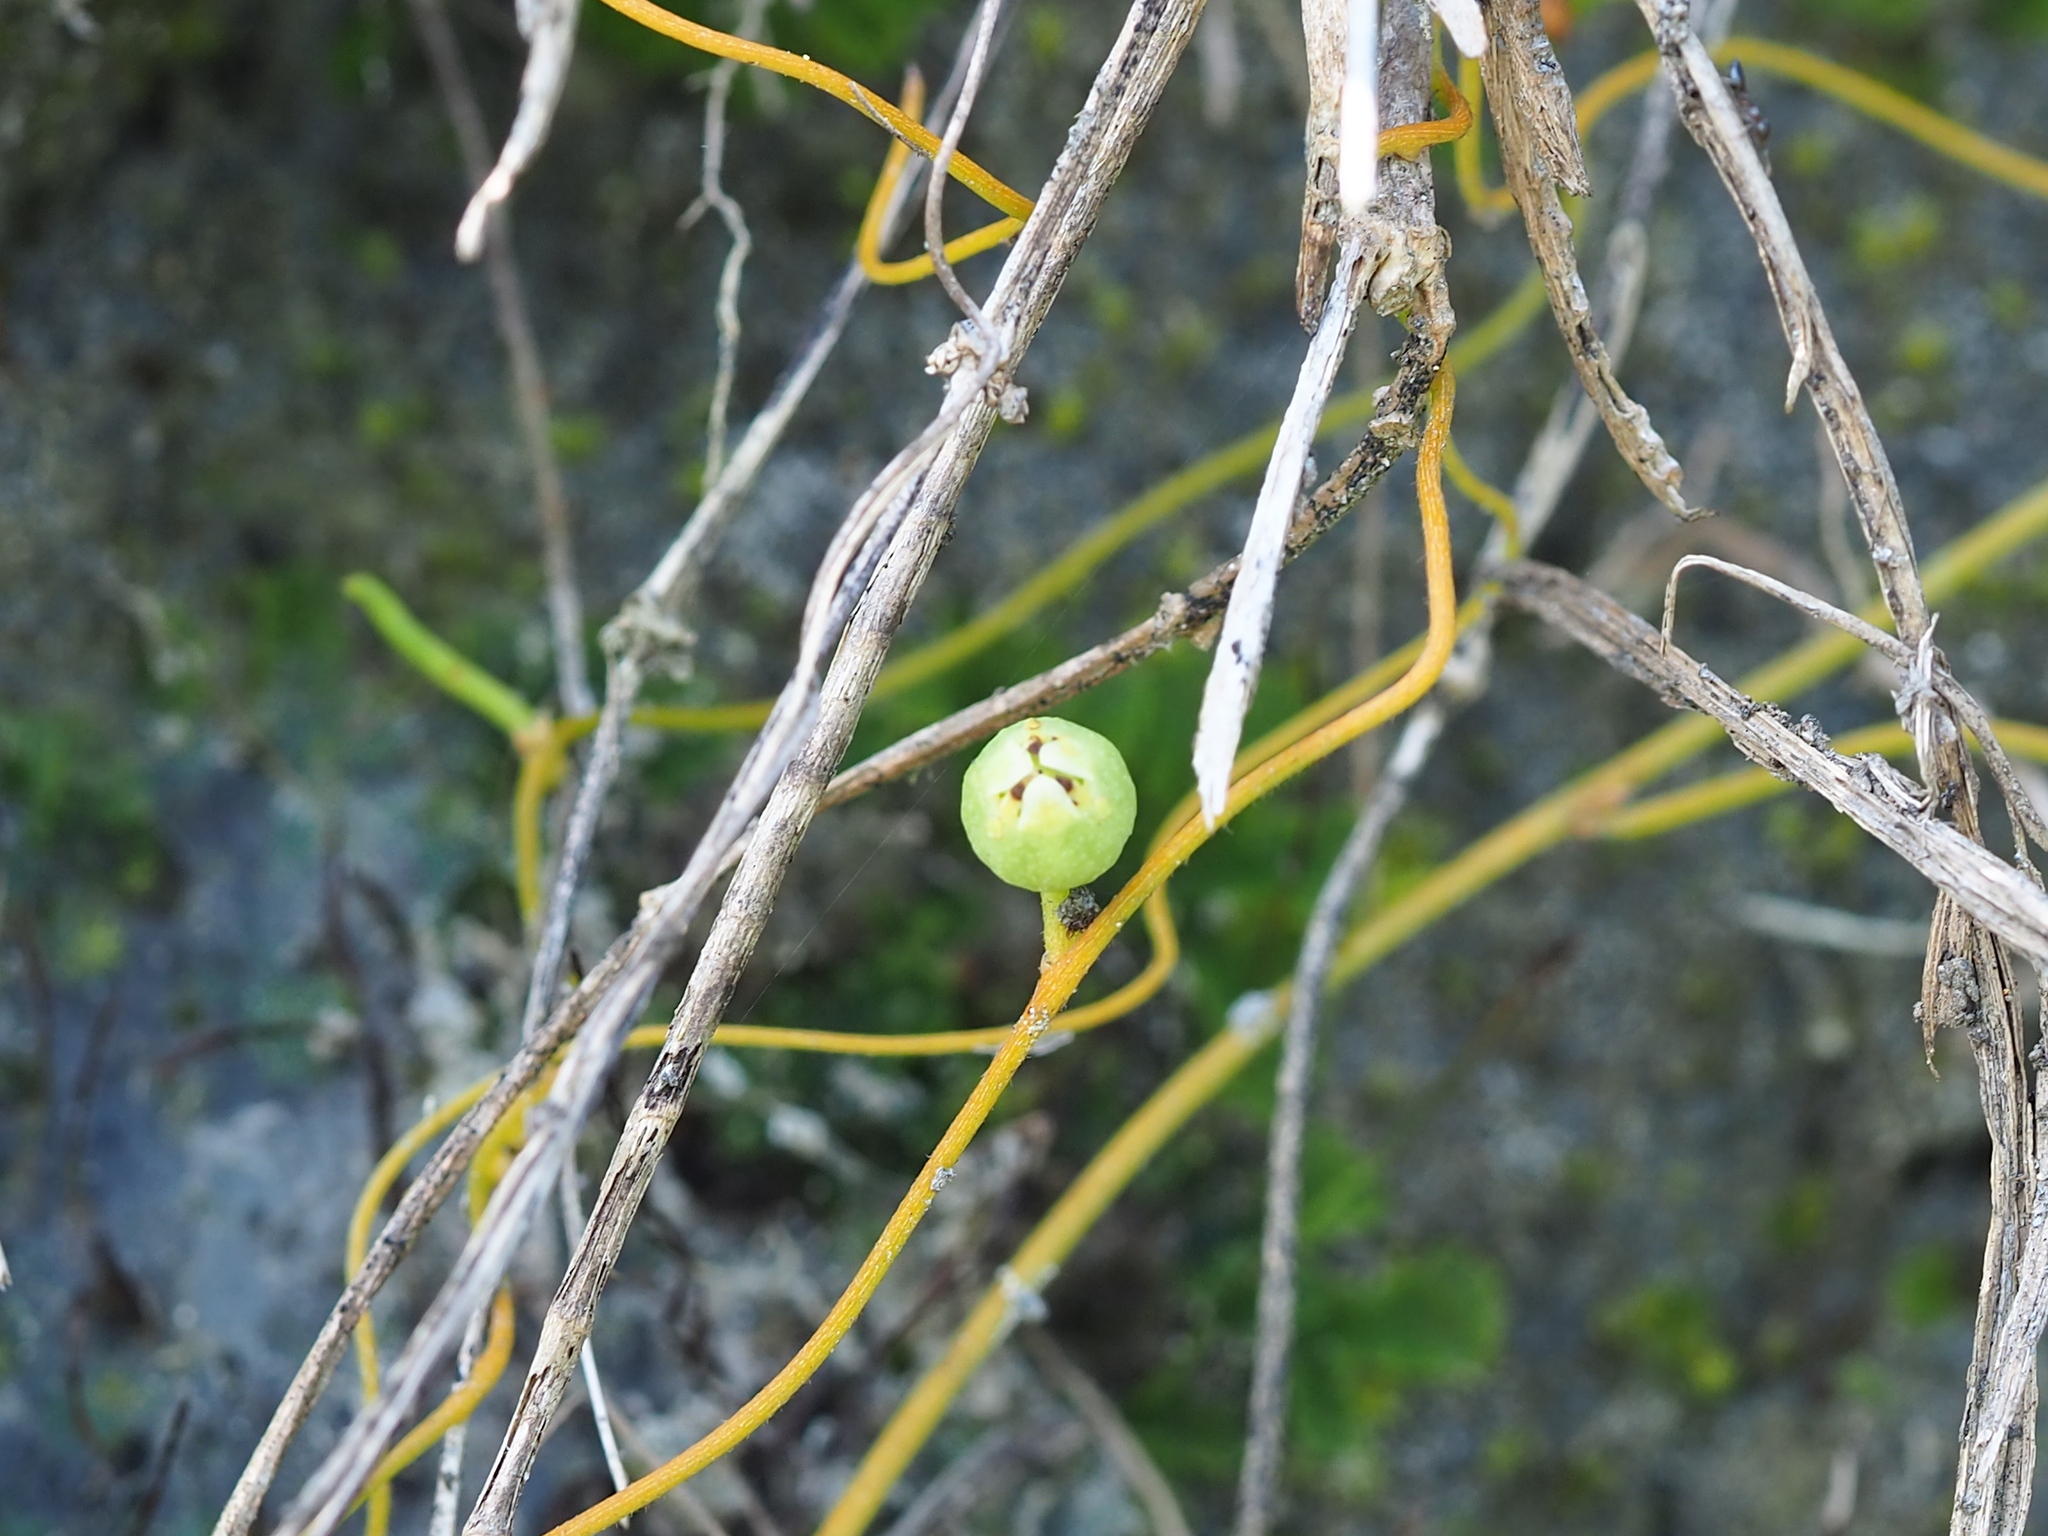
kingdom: Plantae
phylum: Tracheophyta
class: Magnoliopsida
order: Laurales
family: Lauraceae
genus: Cassytha
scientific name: Cassytha filiformis
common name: Dodder-laurel
